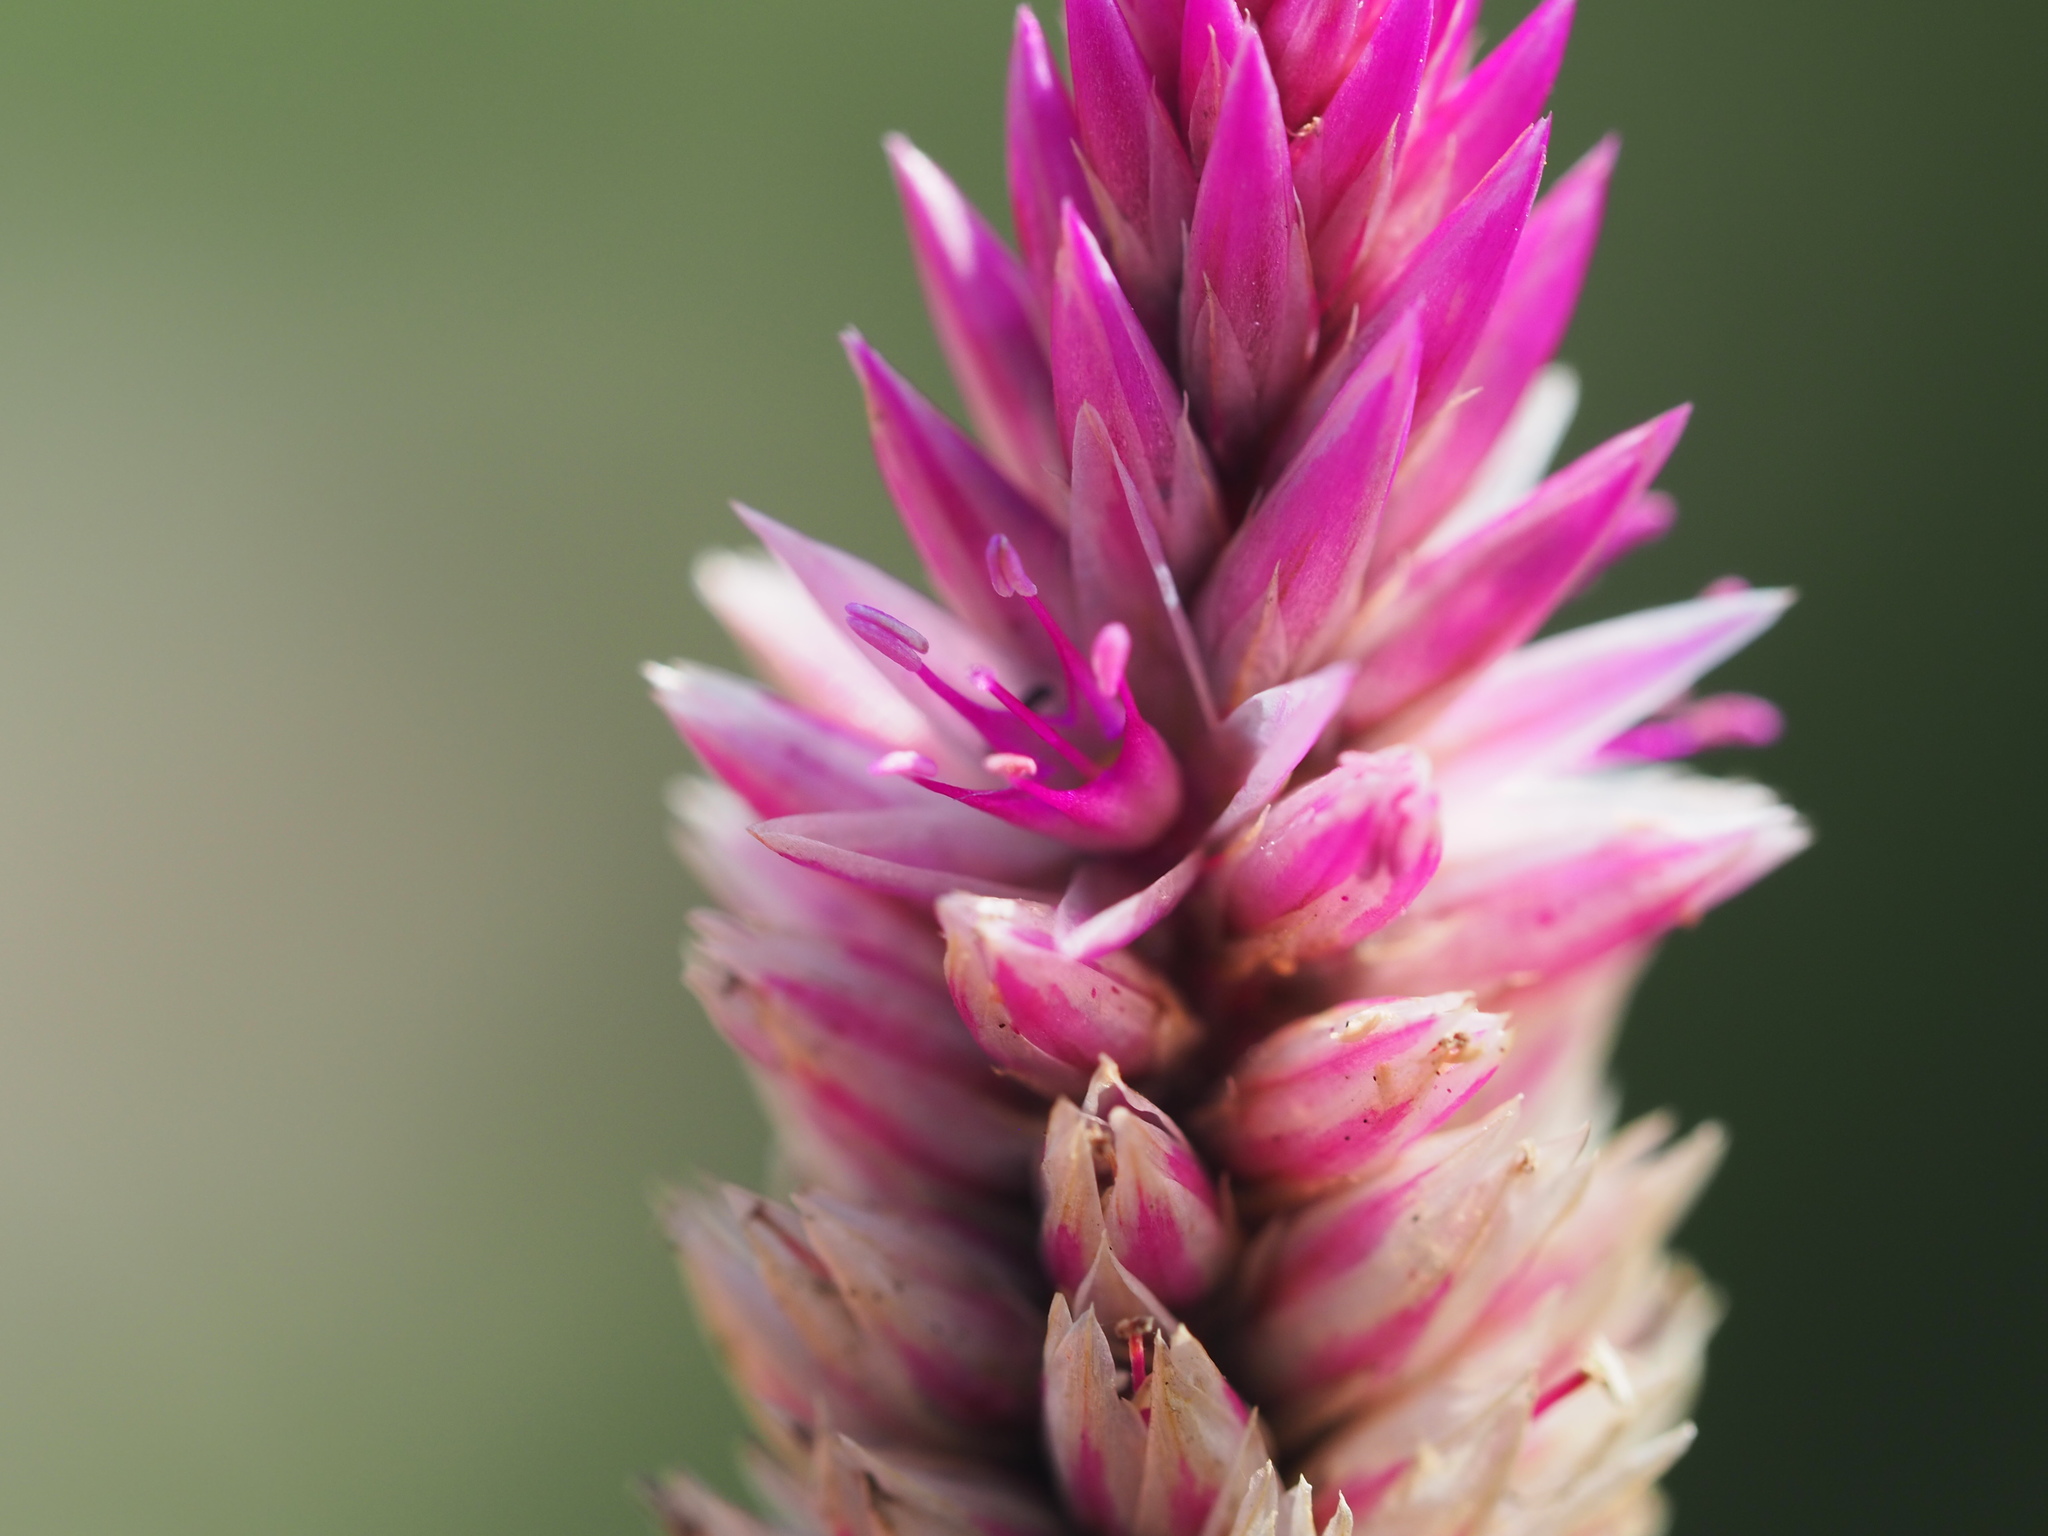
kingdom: Plantae
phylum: Tracheophyta
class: Magnoliopsida
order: Caryophyllales
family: Amaranthaceae
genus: Celosia
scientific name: Celosia argentea
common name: Feather cockscomb
